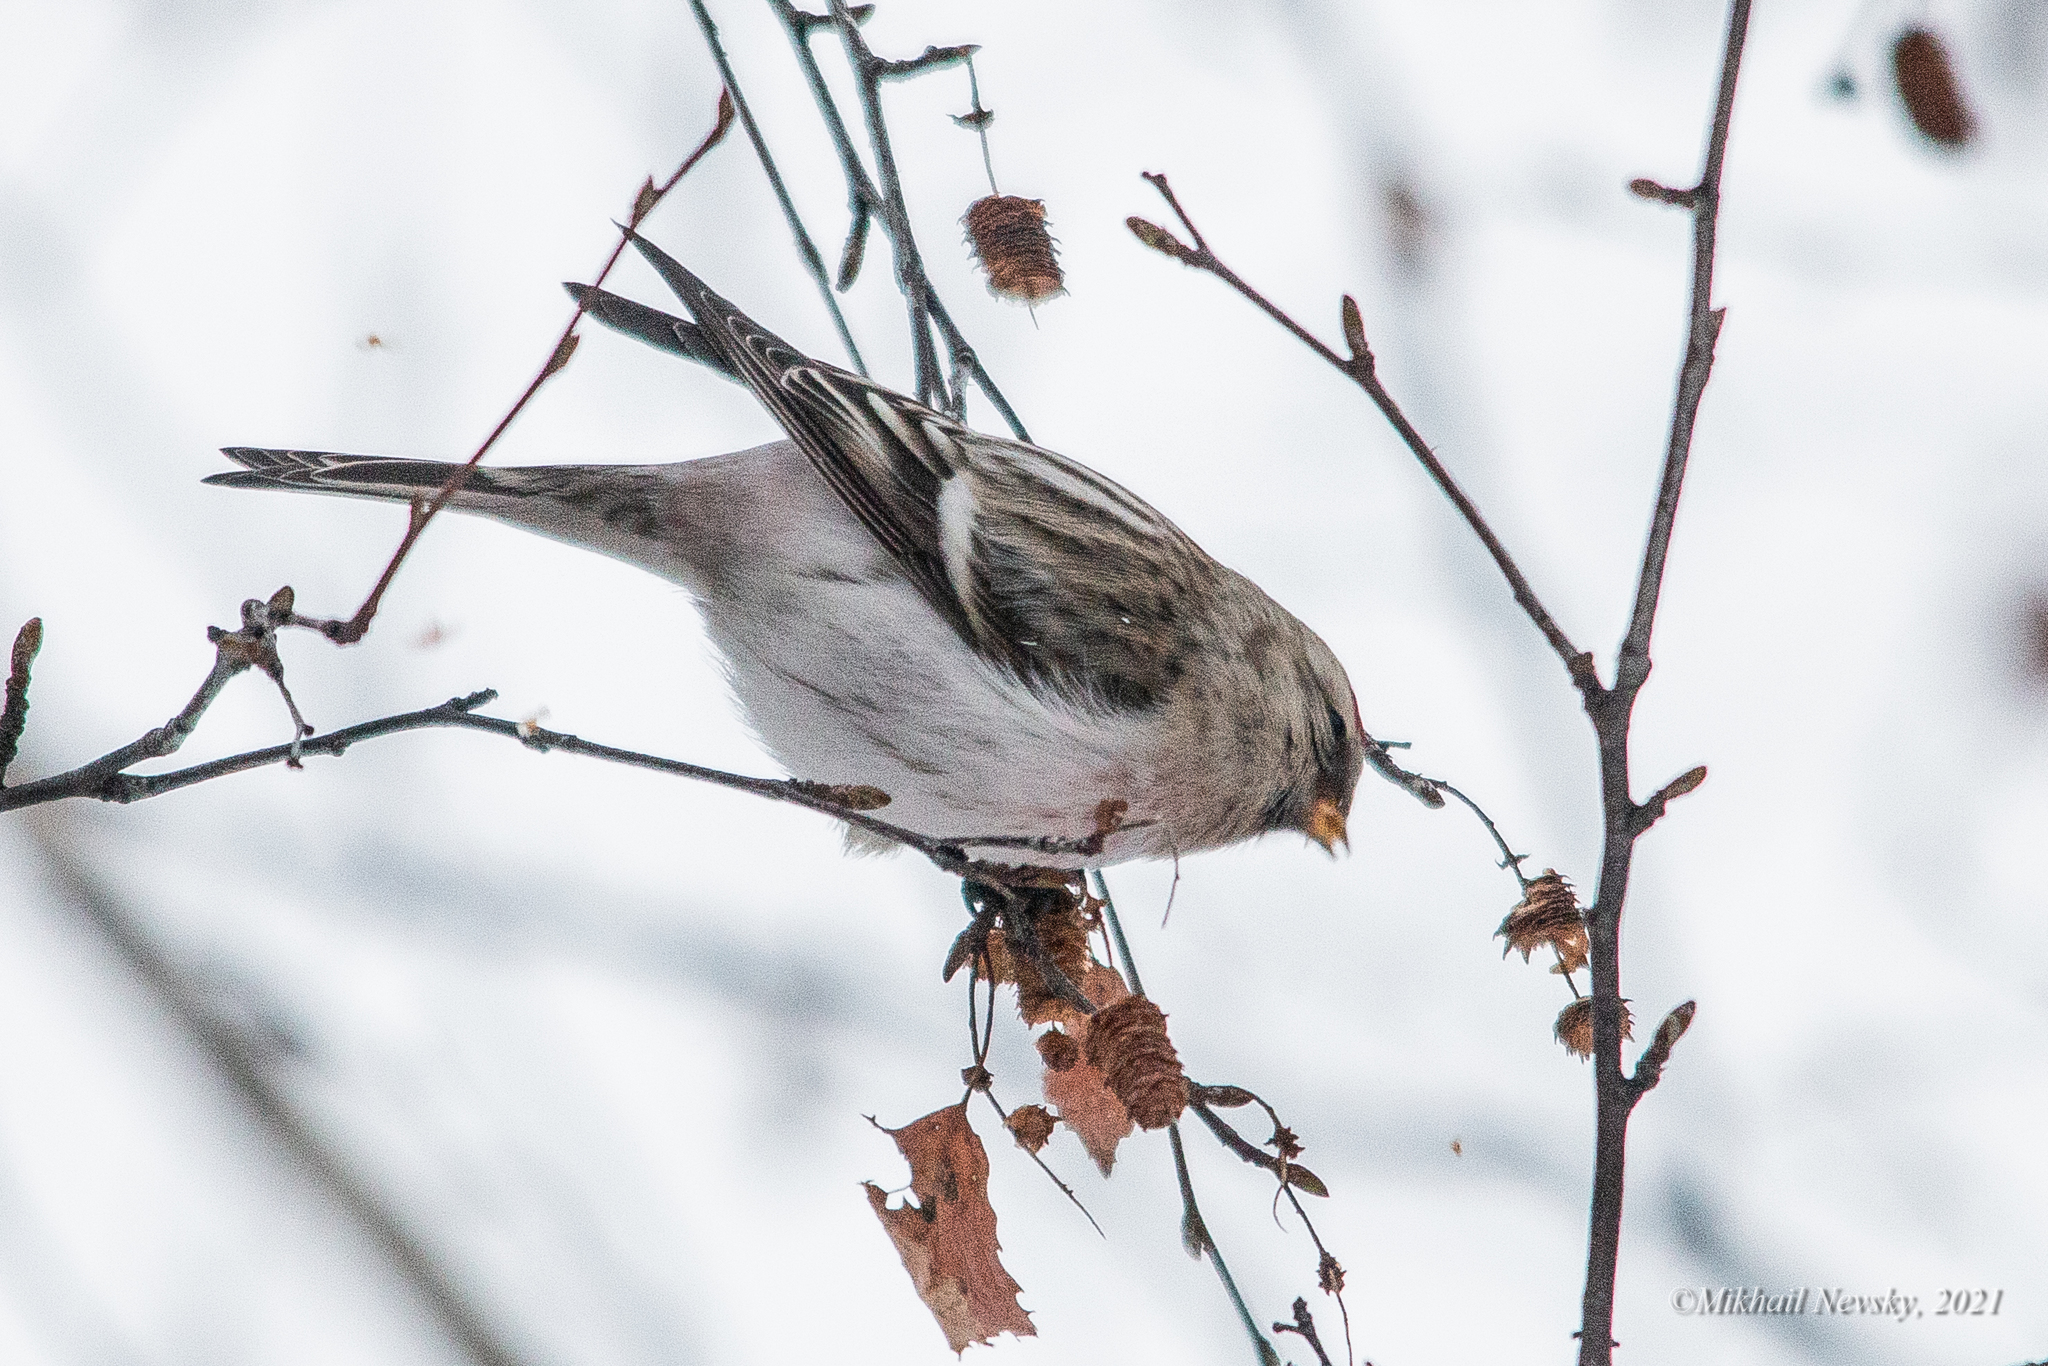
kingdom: Animalia
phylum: Chordata
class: Aves
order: Passeriformes
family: Fringillidae
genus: Acanthis
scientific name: Acanthis hornemanni
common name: Arctic redpoll
